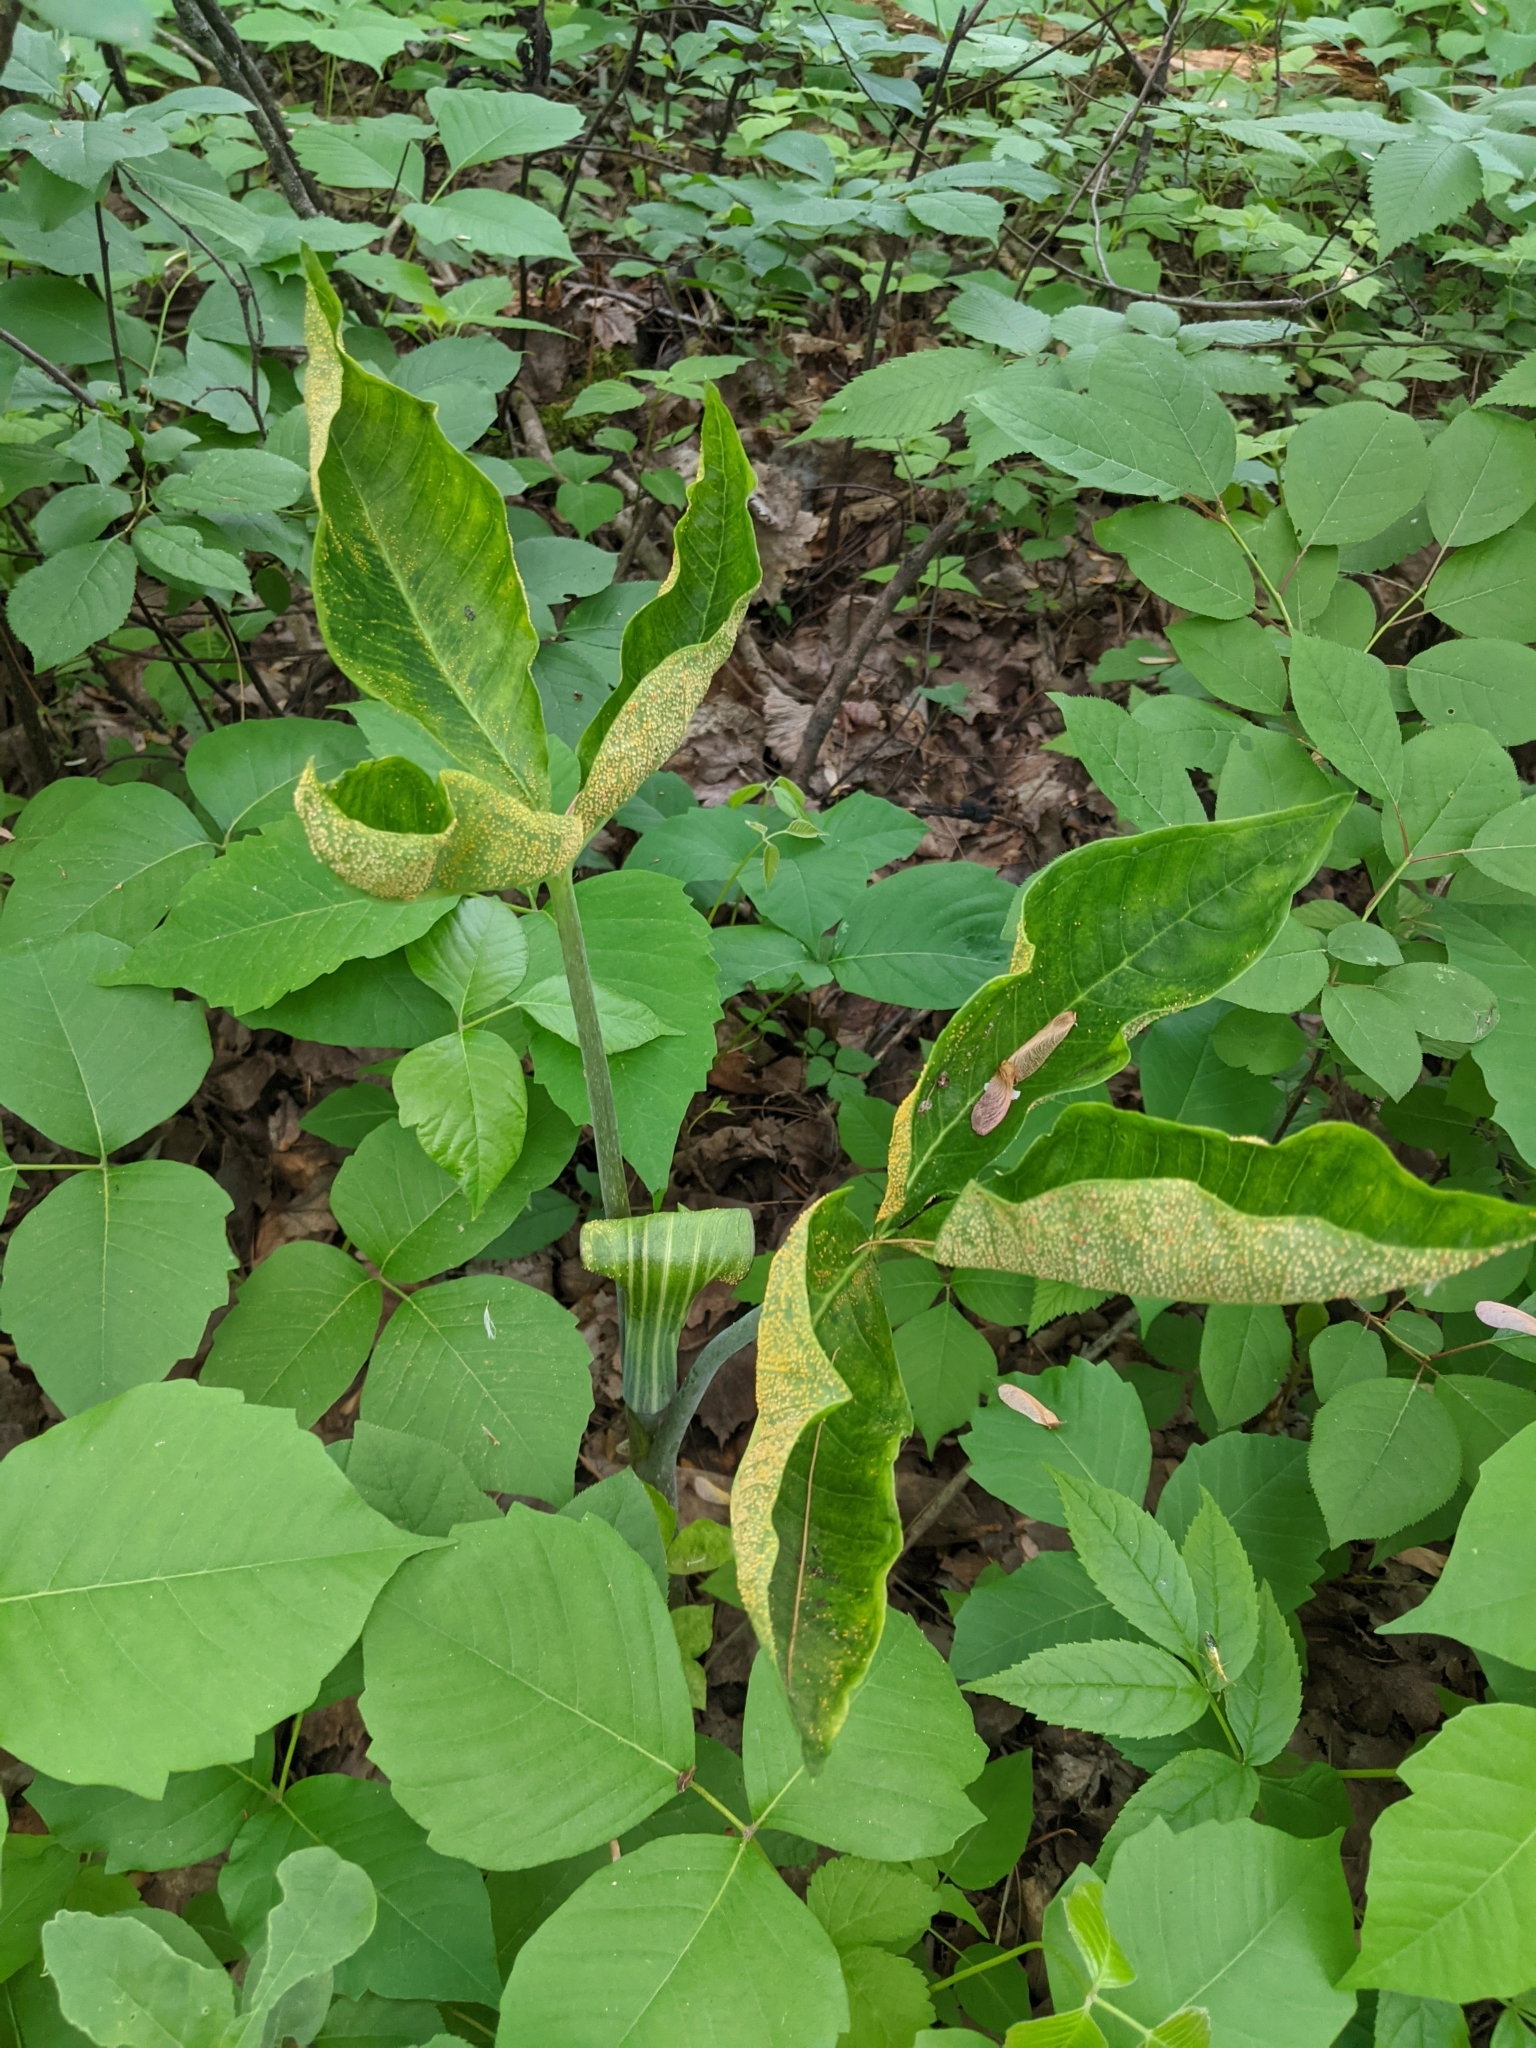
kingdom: Plantae
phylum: Tracheophyta
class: Liliopsida
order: Alismatales
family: Araceae
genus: Arisaema
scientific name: Arisaema triphyllum
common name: Jack-in-the-pulpit
